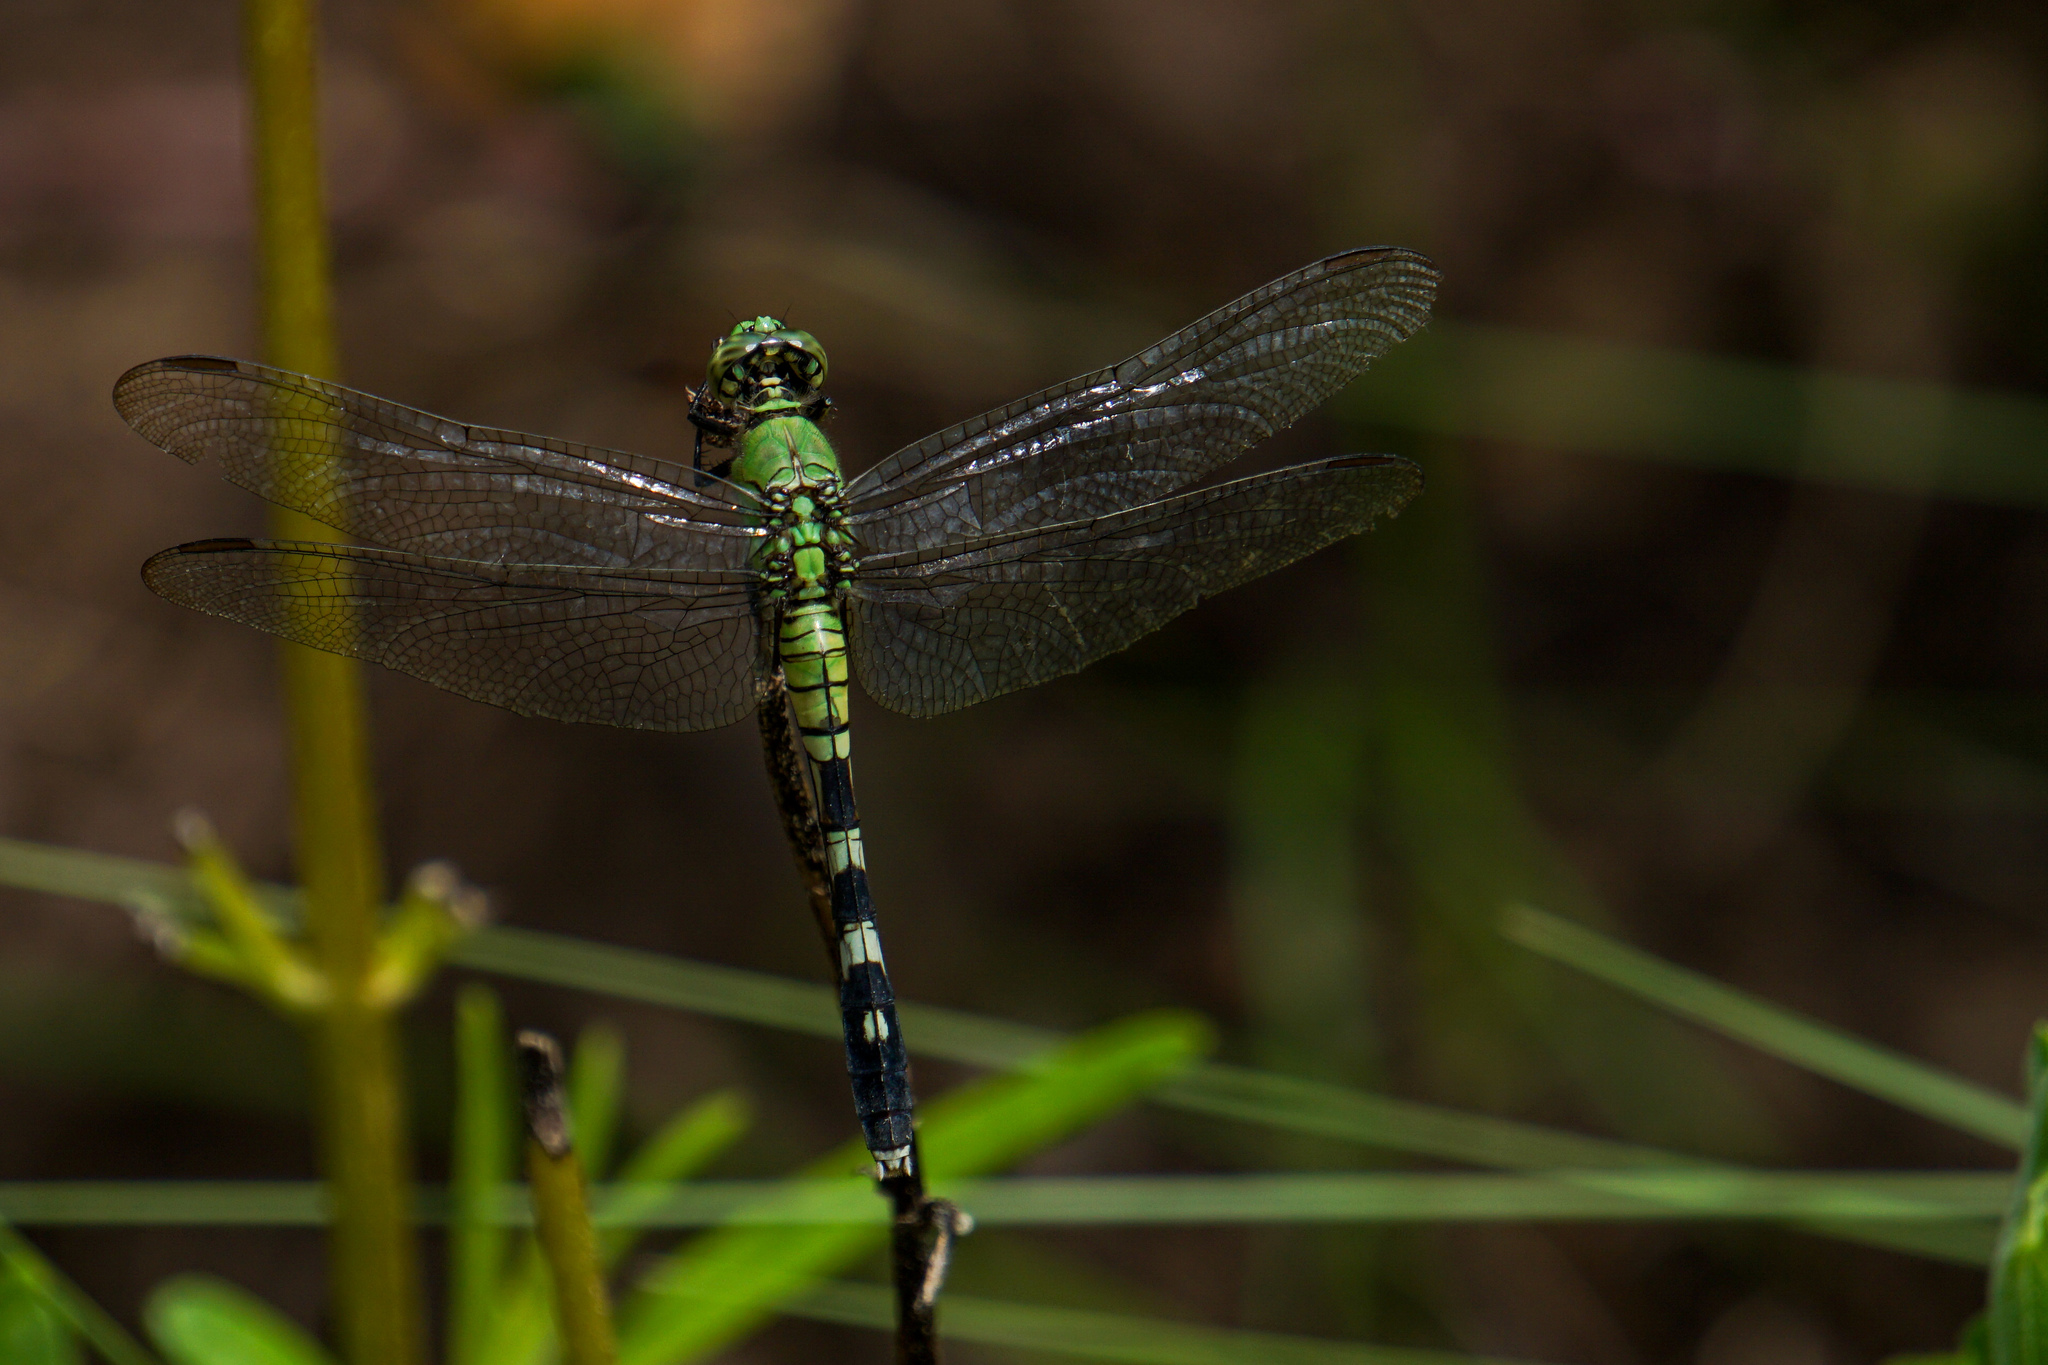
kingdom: Animalia
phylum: Arthropoda
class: Insecta
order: Odonata
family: Libellulidae
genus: Erythemis
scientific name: Erythemis simplicicollis
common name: Eastern pondhawk
